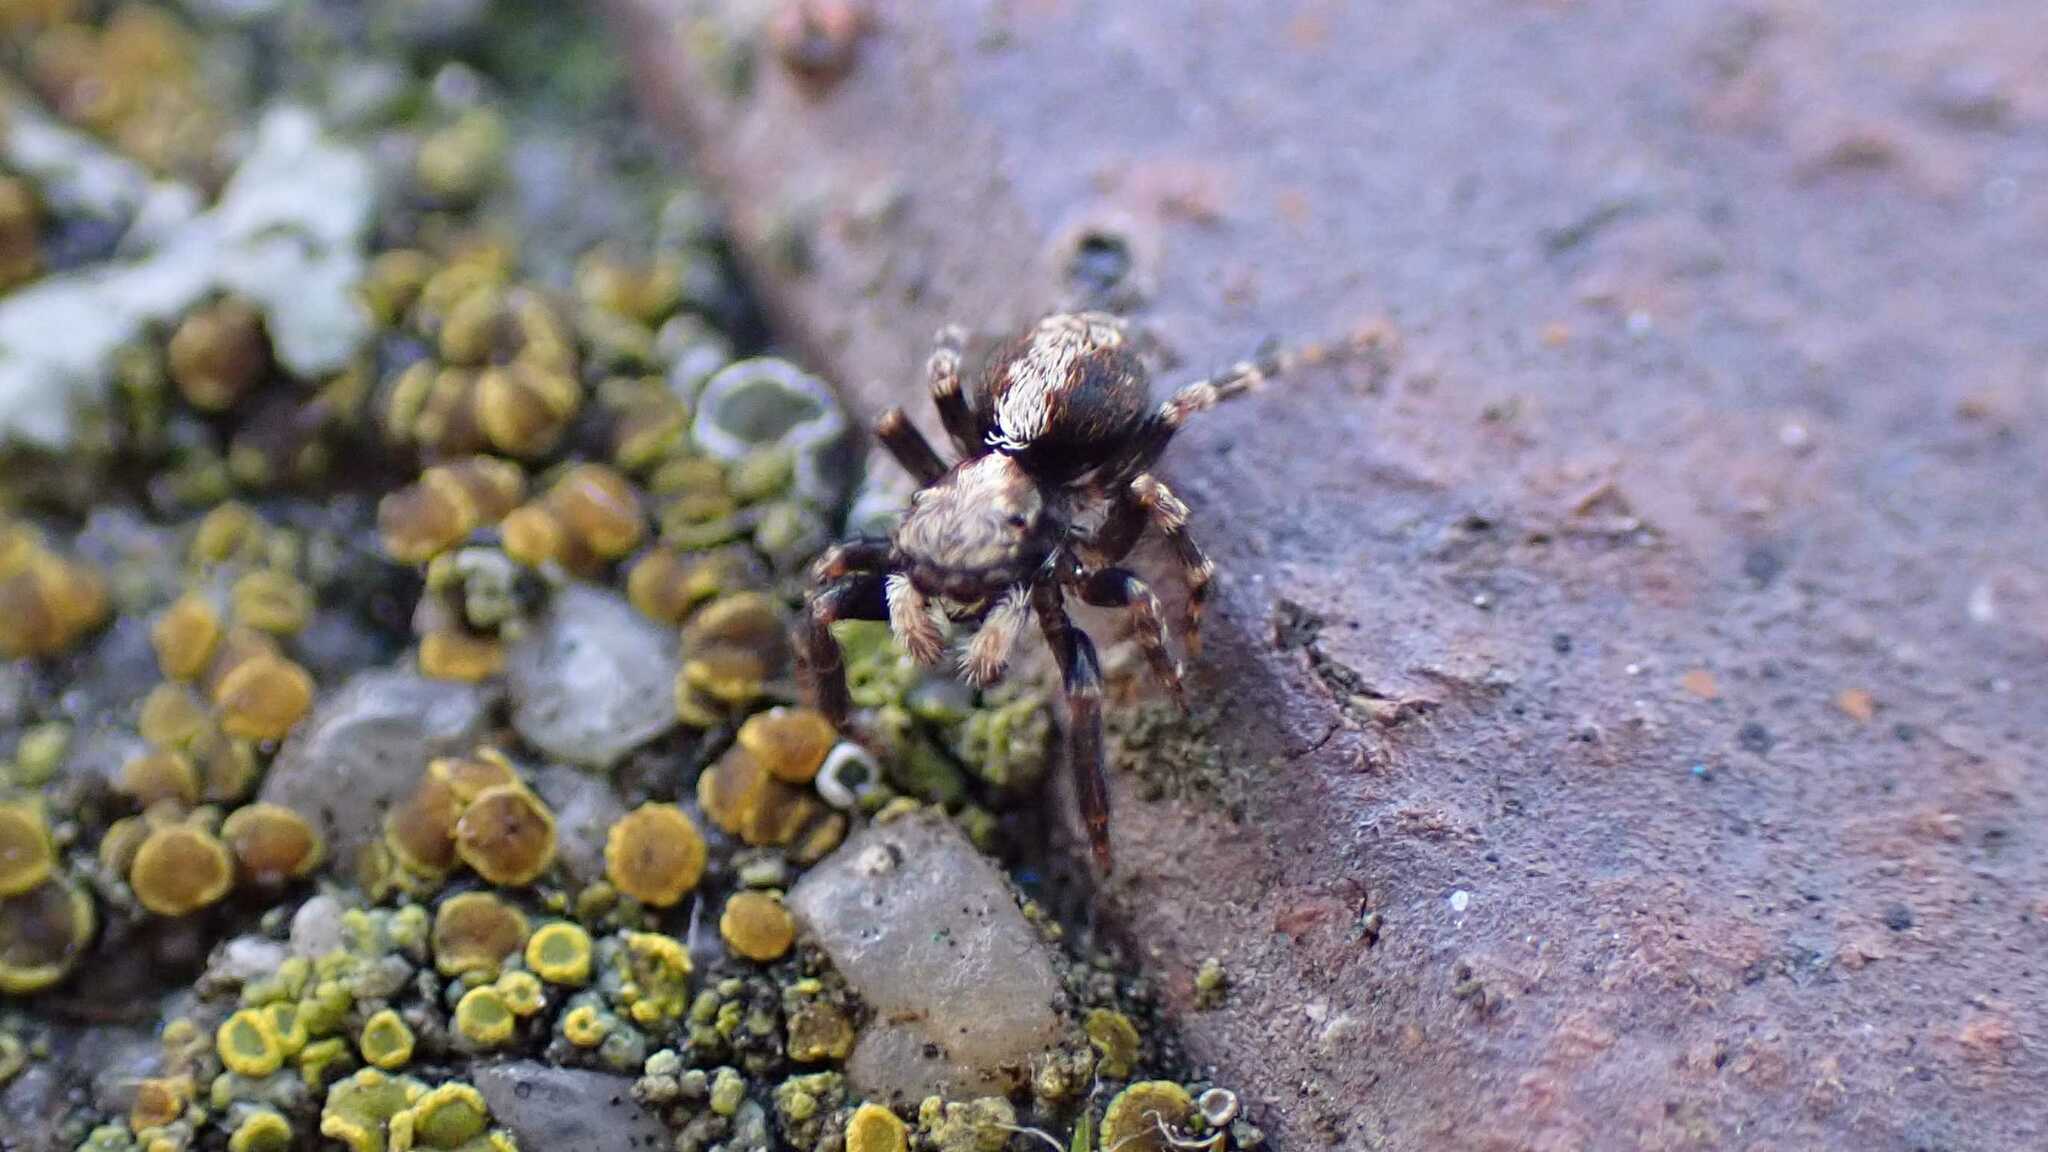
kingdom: Animalia
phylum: Arthropoda
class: Arachnida
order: Araneae
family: Salticidae
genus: Pseudeuophrys
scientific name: Pseudeuophrys lanigera
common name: Jumping spider
